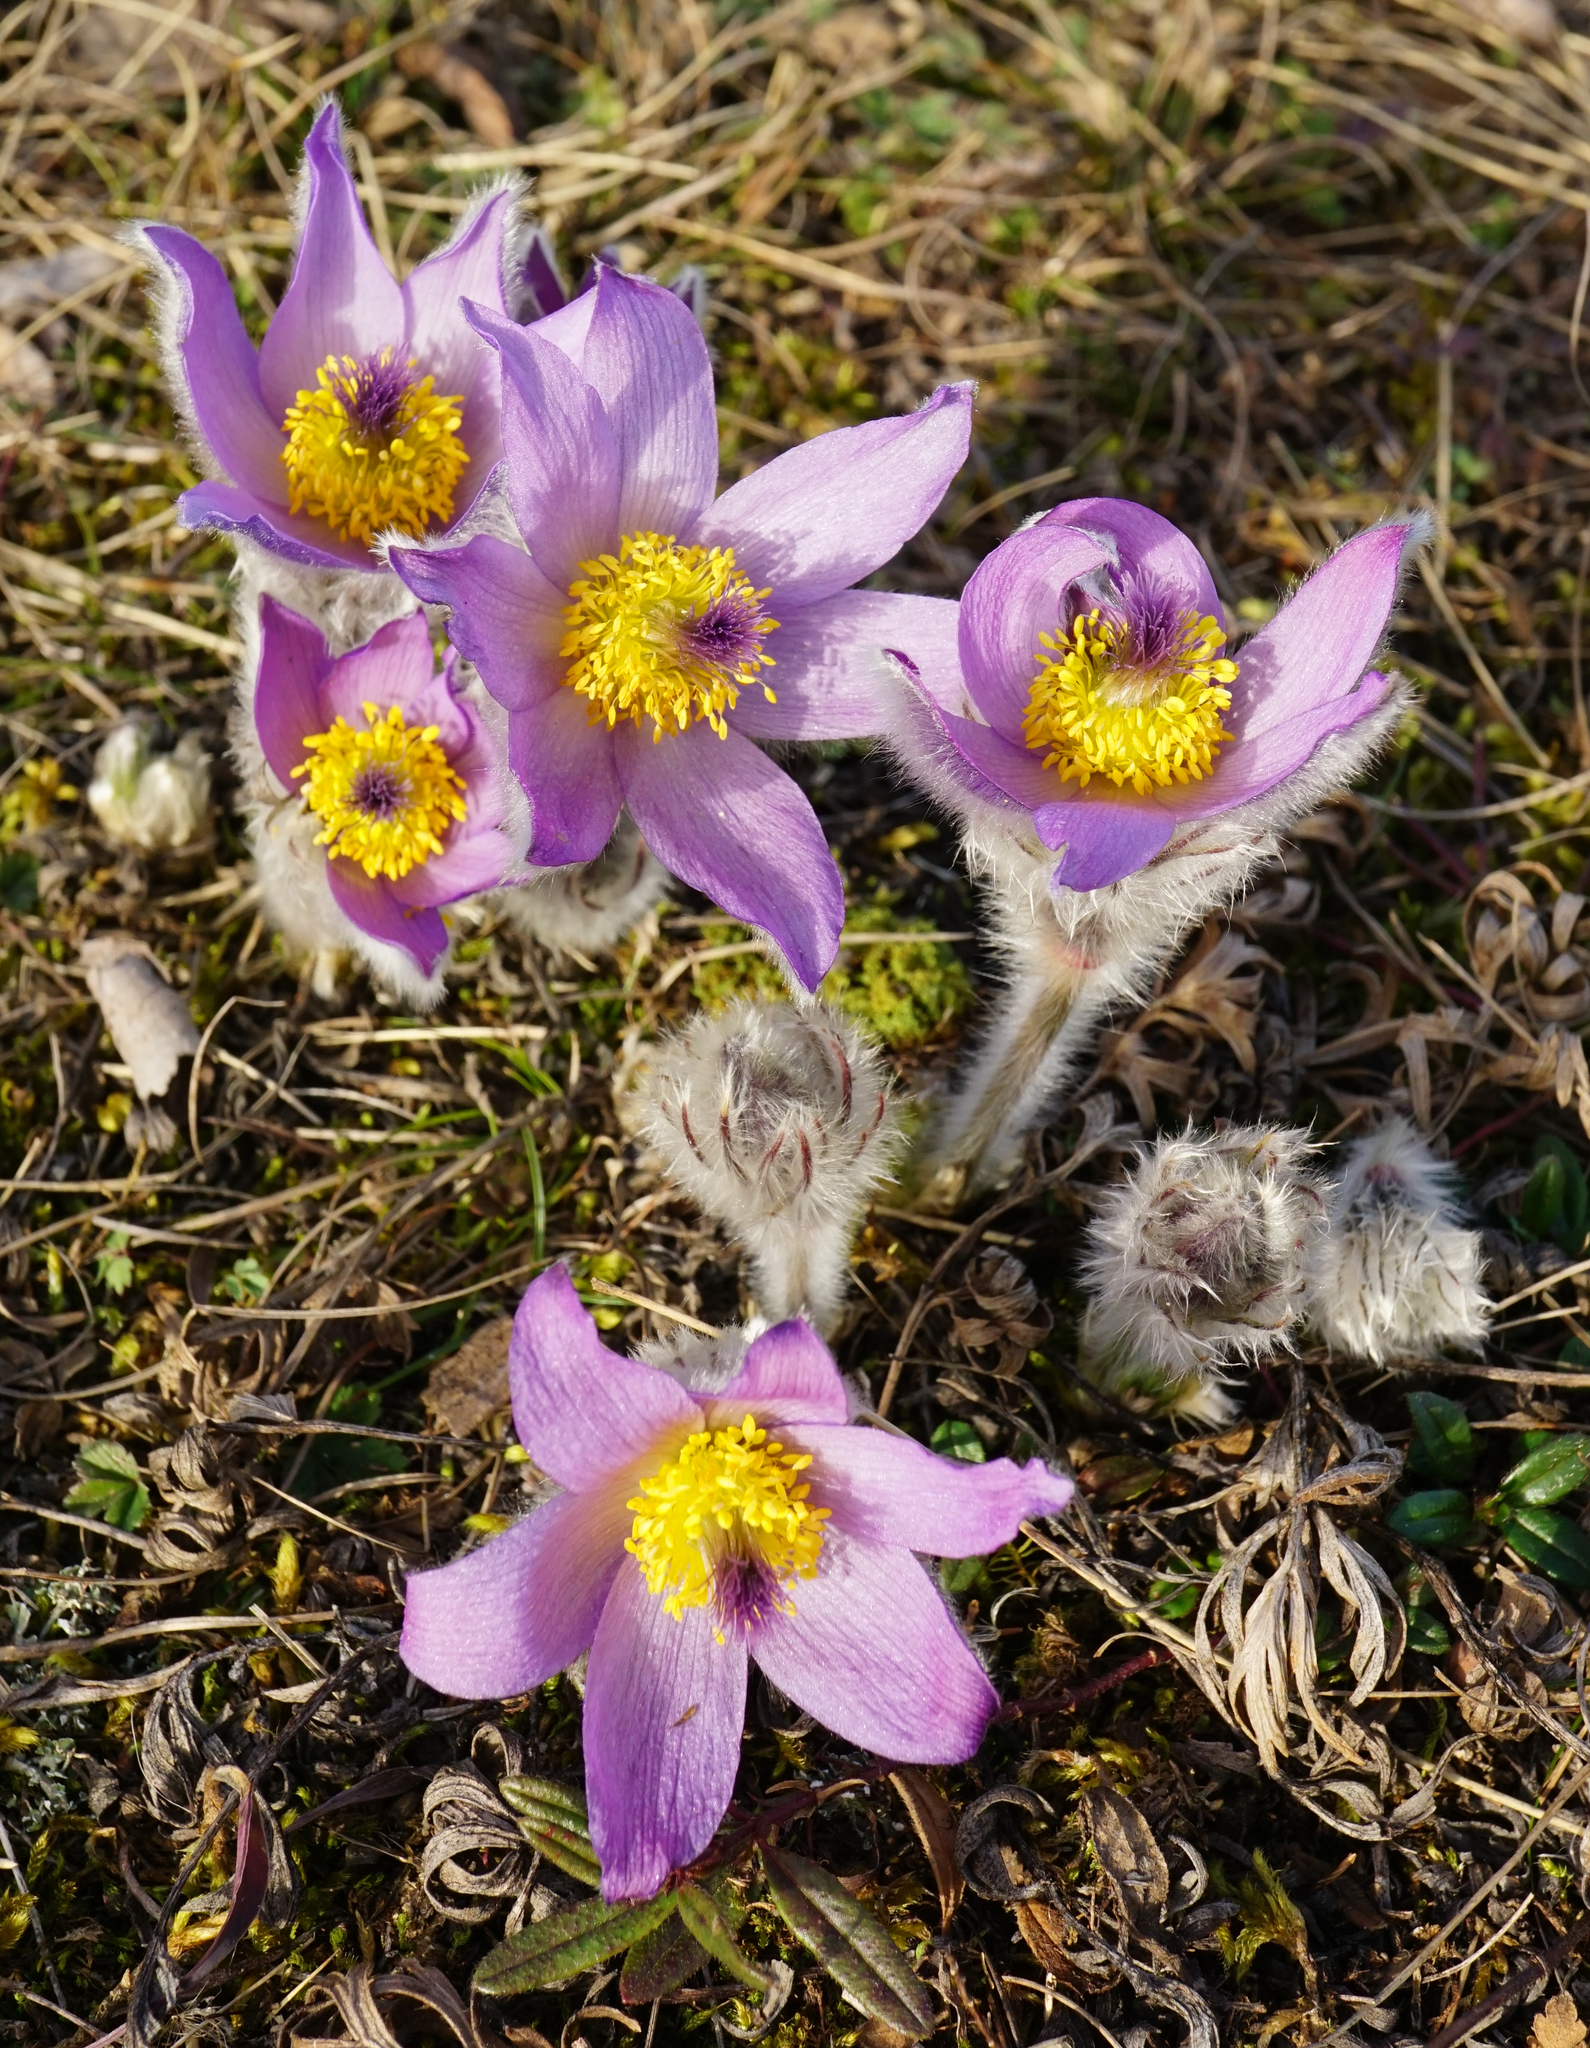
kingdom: Plantae
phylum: Tracheophyta
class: Magnoliopsida
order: Ranunculales
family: Ranunculaceae
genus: Pulsatilla
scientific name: Pulsatilla grandis
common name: Greater pasque flower
